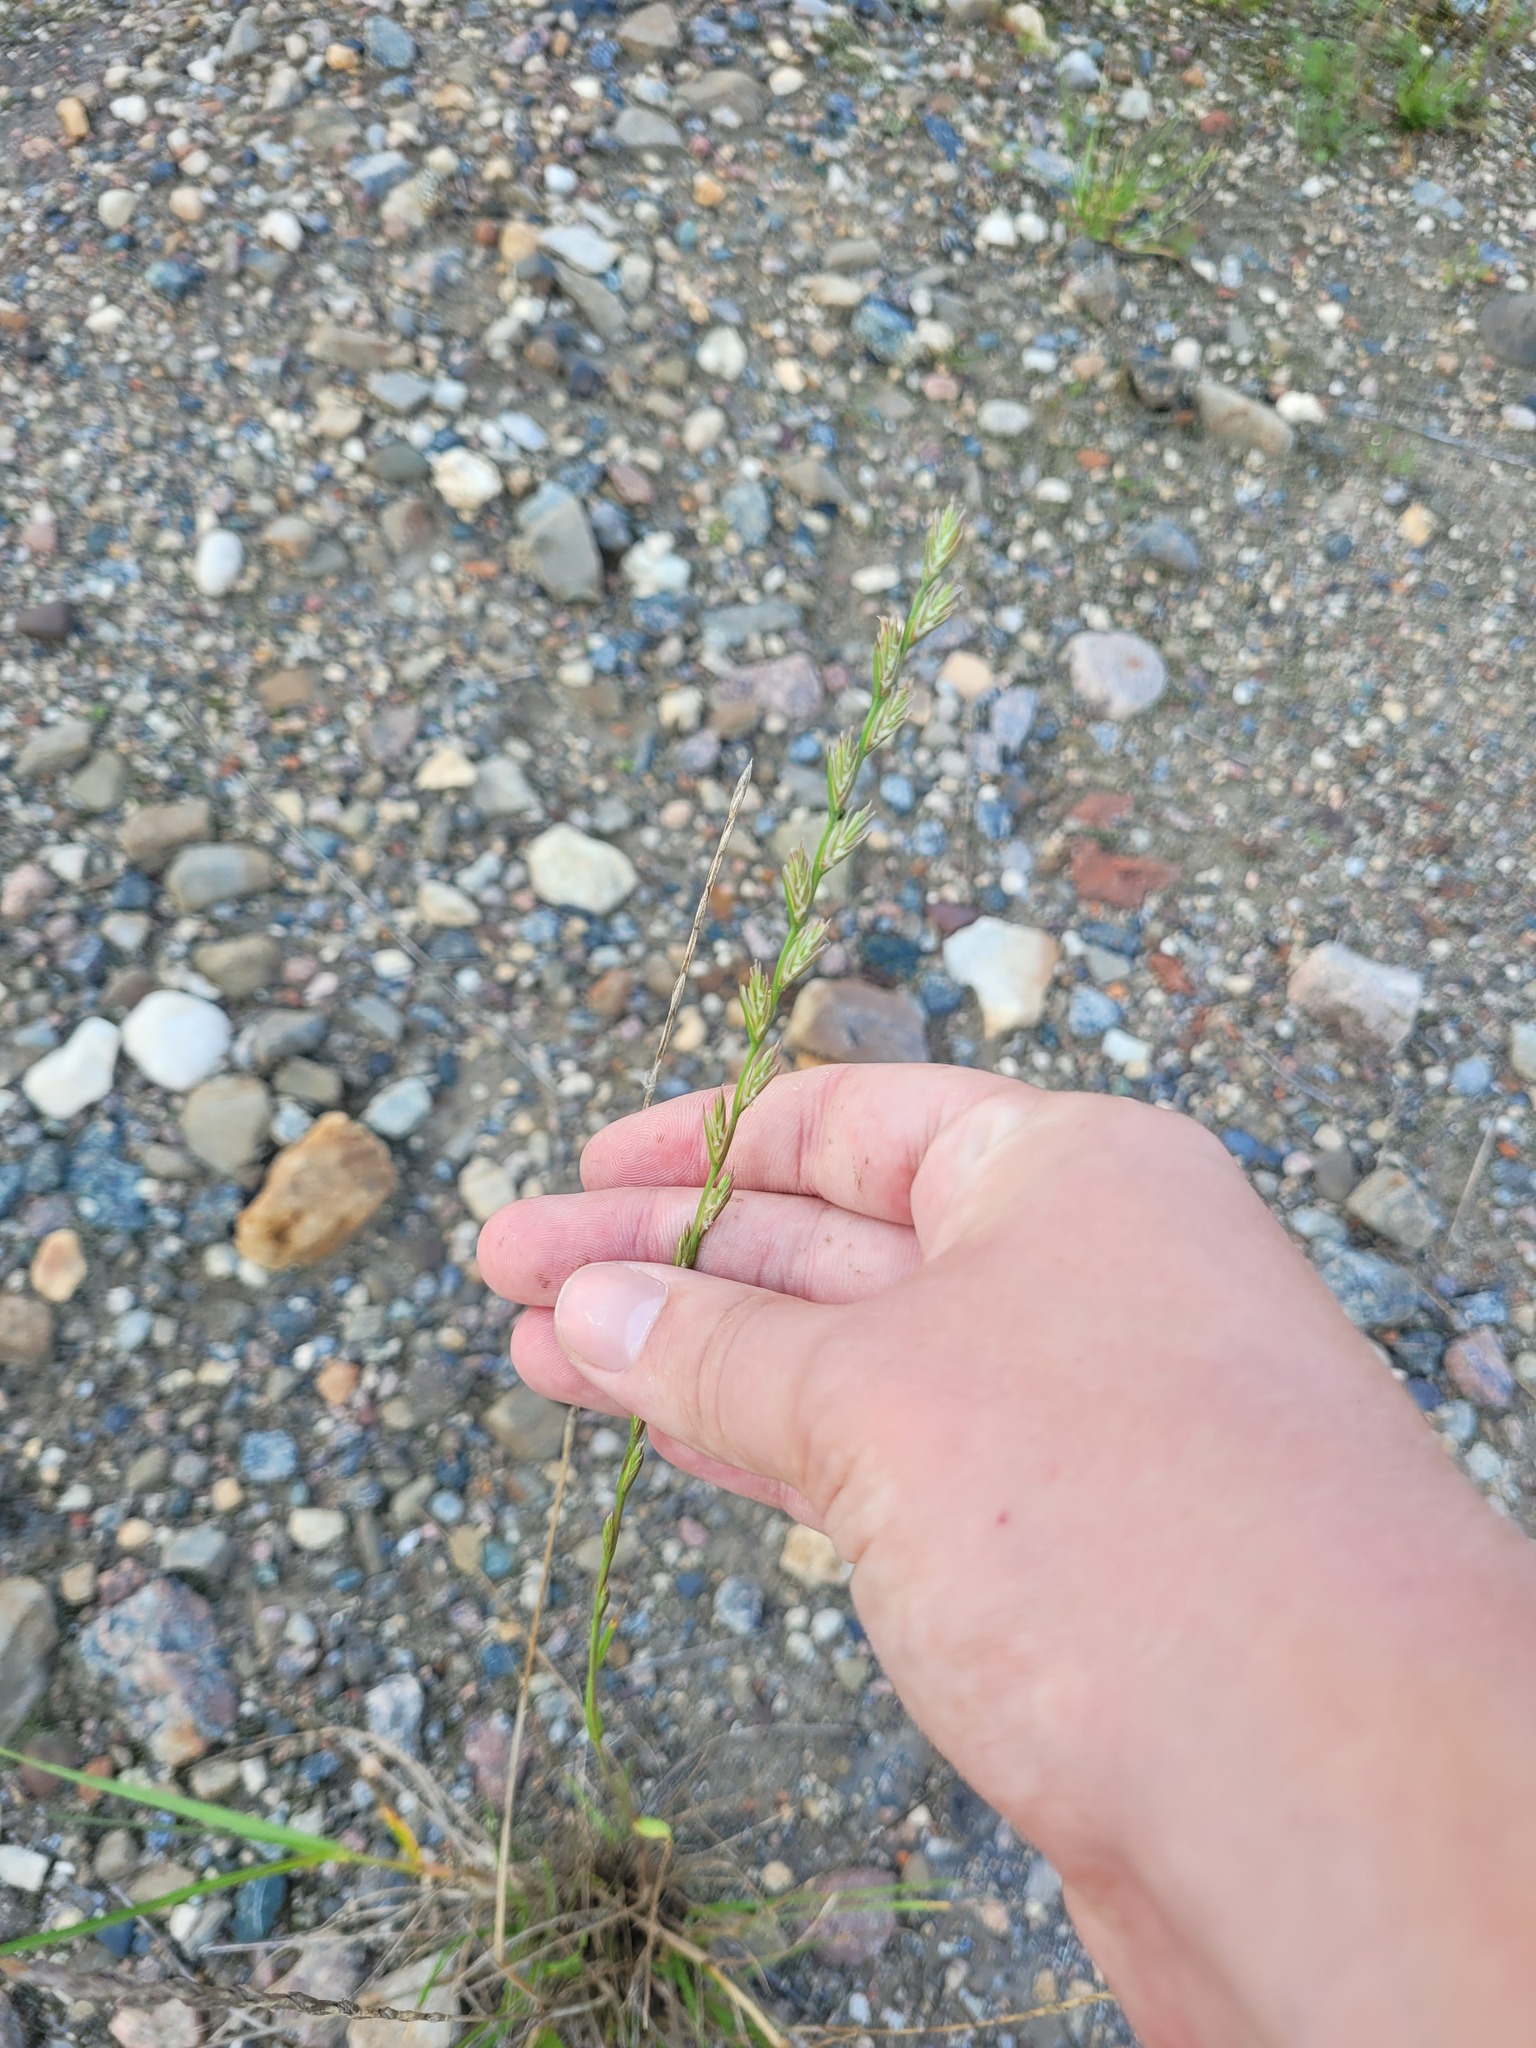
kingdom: Plantae
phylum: Tracheophyta
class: Liliopsida
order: Poales
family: Poaceae
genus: Lolium
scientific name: Lolium perenne
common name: Perennial ryegrass
